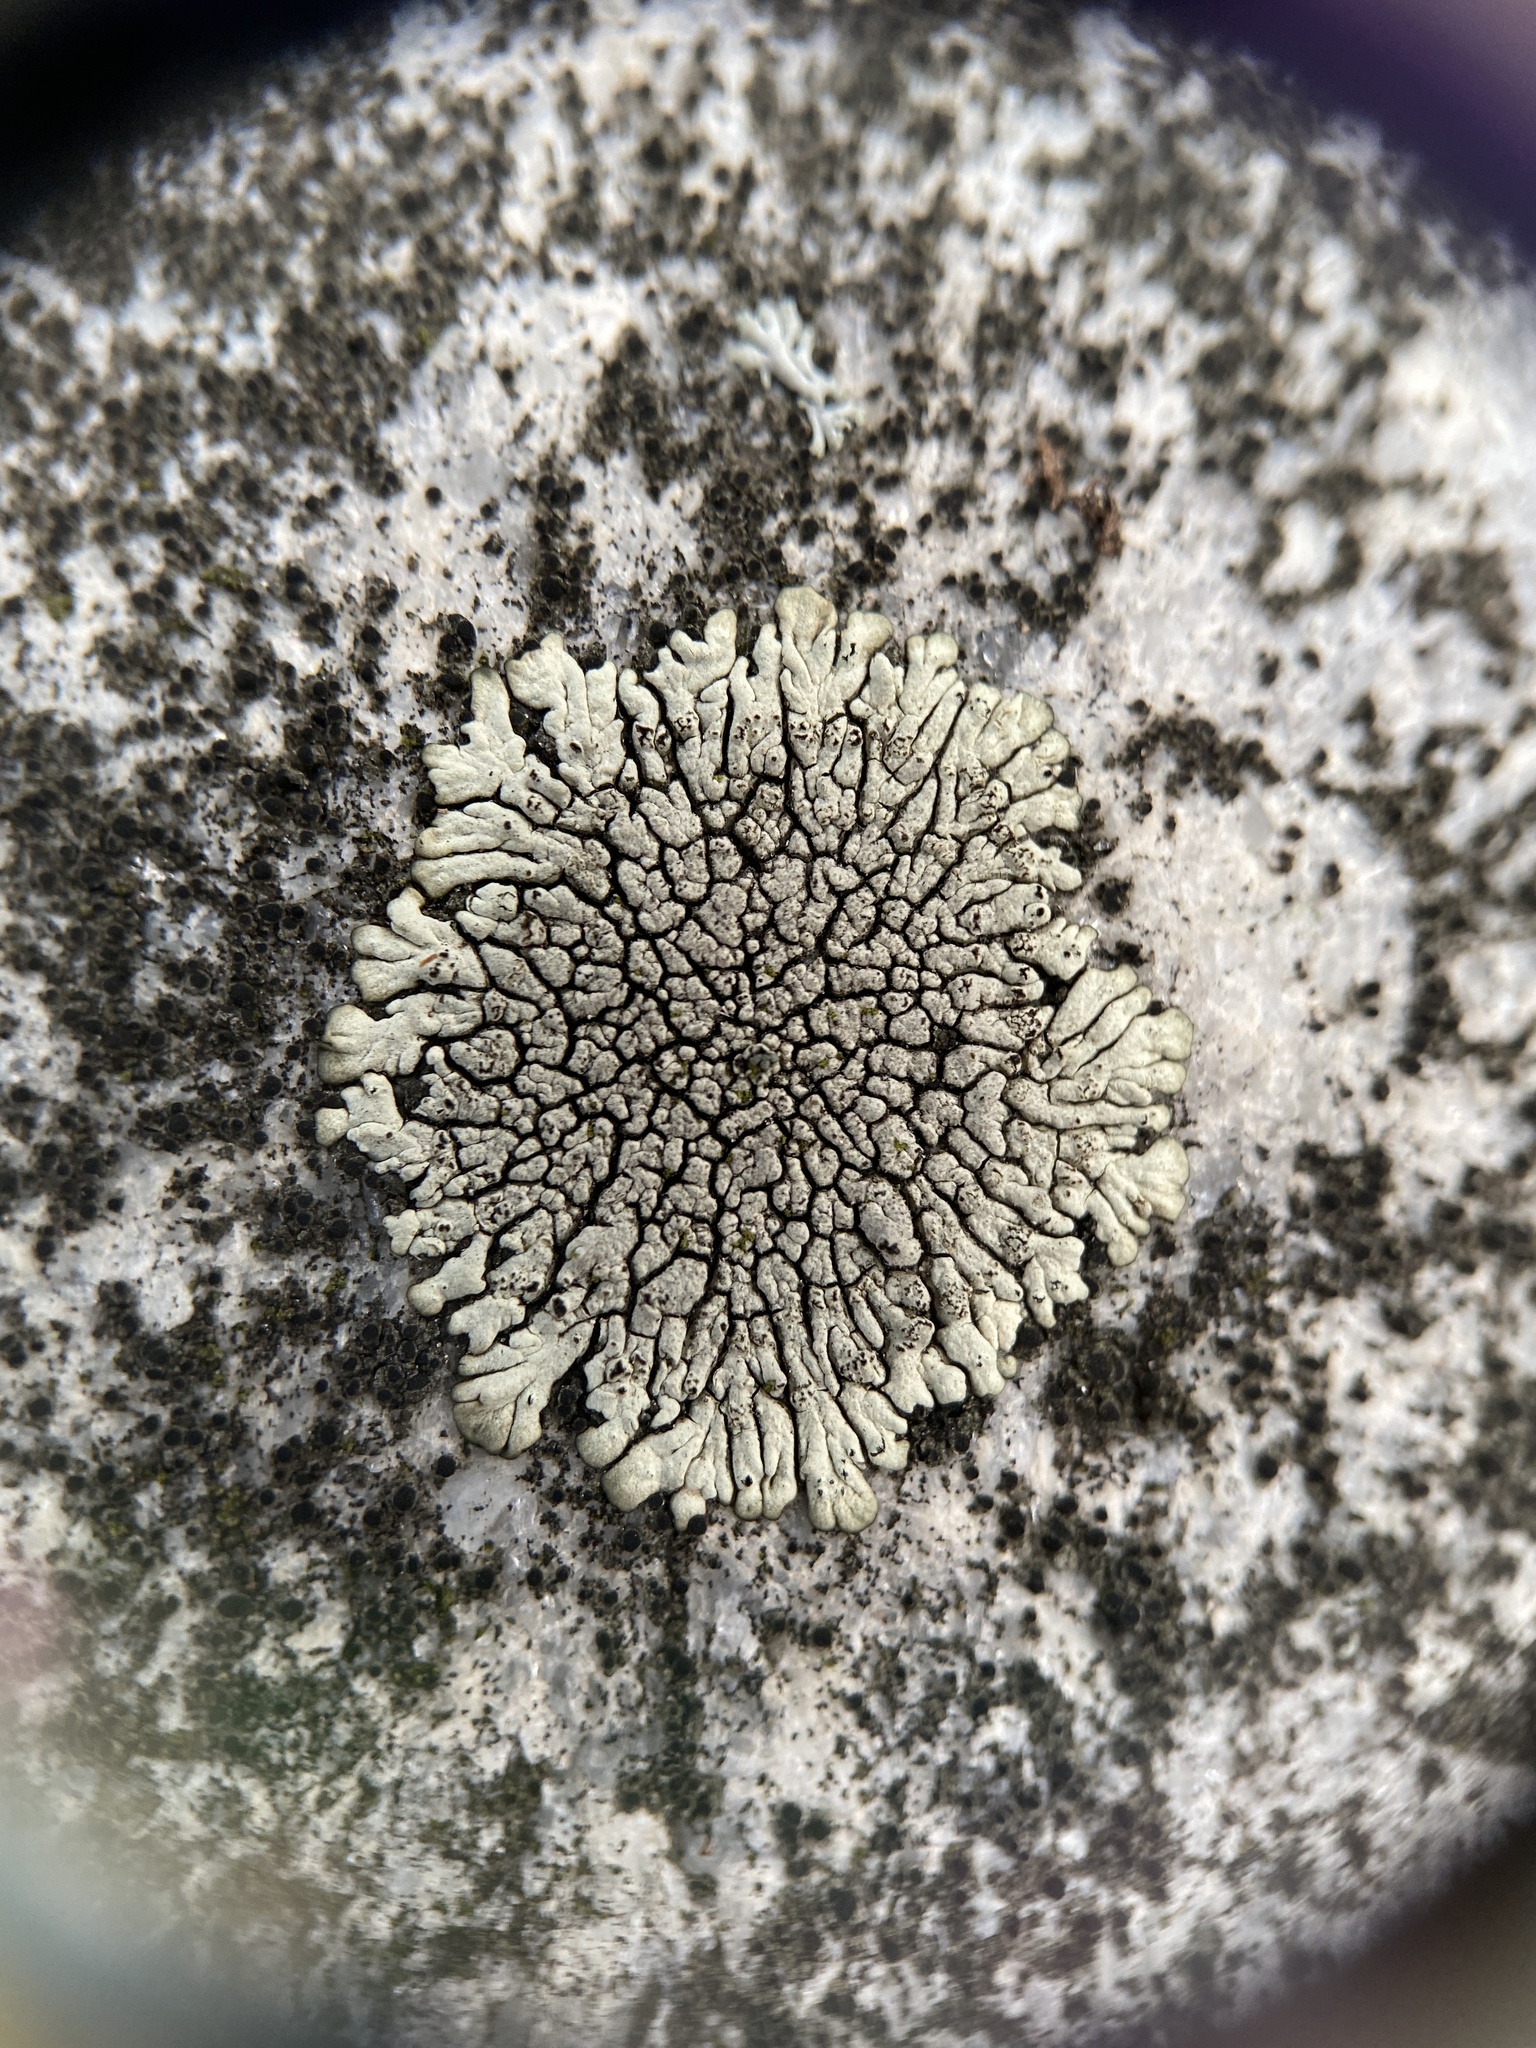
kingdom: Fungi
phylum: Ascomycota
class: Lecanoromycetes
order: Caliciales
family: Caliciaceae
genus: Dimelaena
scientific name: Dimelaena oreina
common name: Golden moonglow lichen
